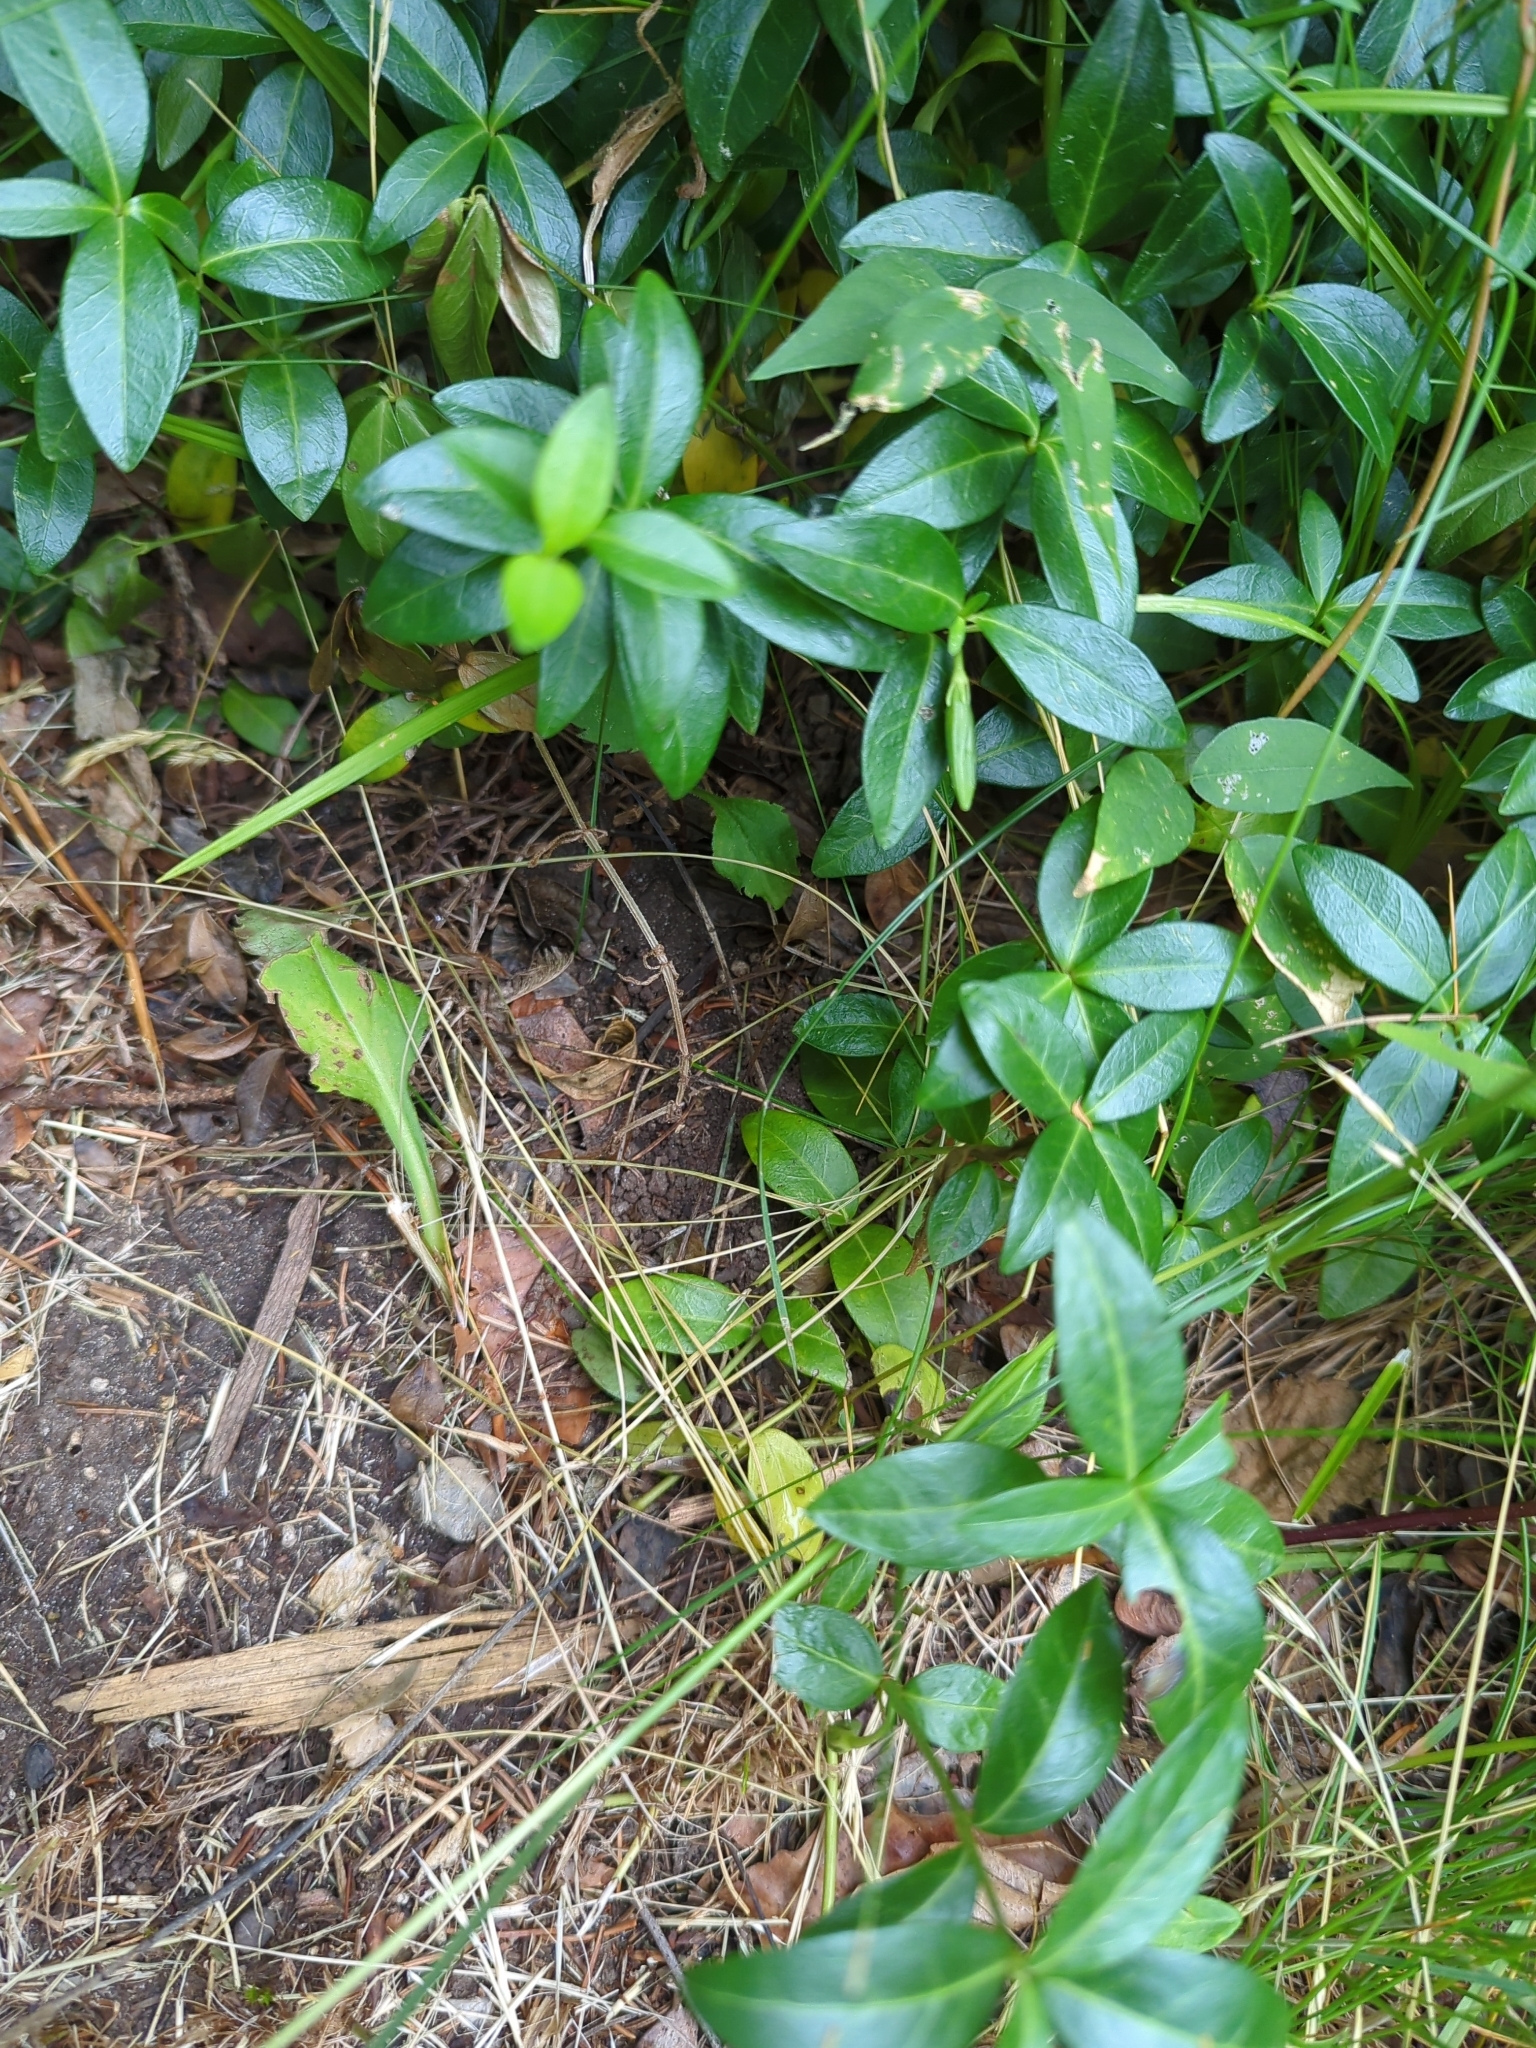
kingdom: Plantae
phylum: Tracheophyta
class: Magnoliopsida
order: Gentianales
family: Apocynaceae
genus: Vinca
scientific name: Vinca minor
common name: Lesser periwinkle
